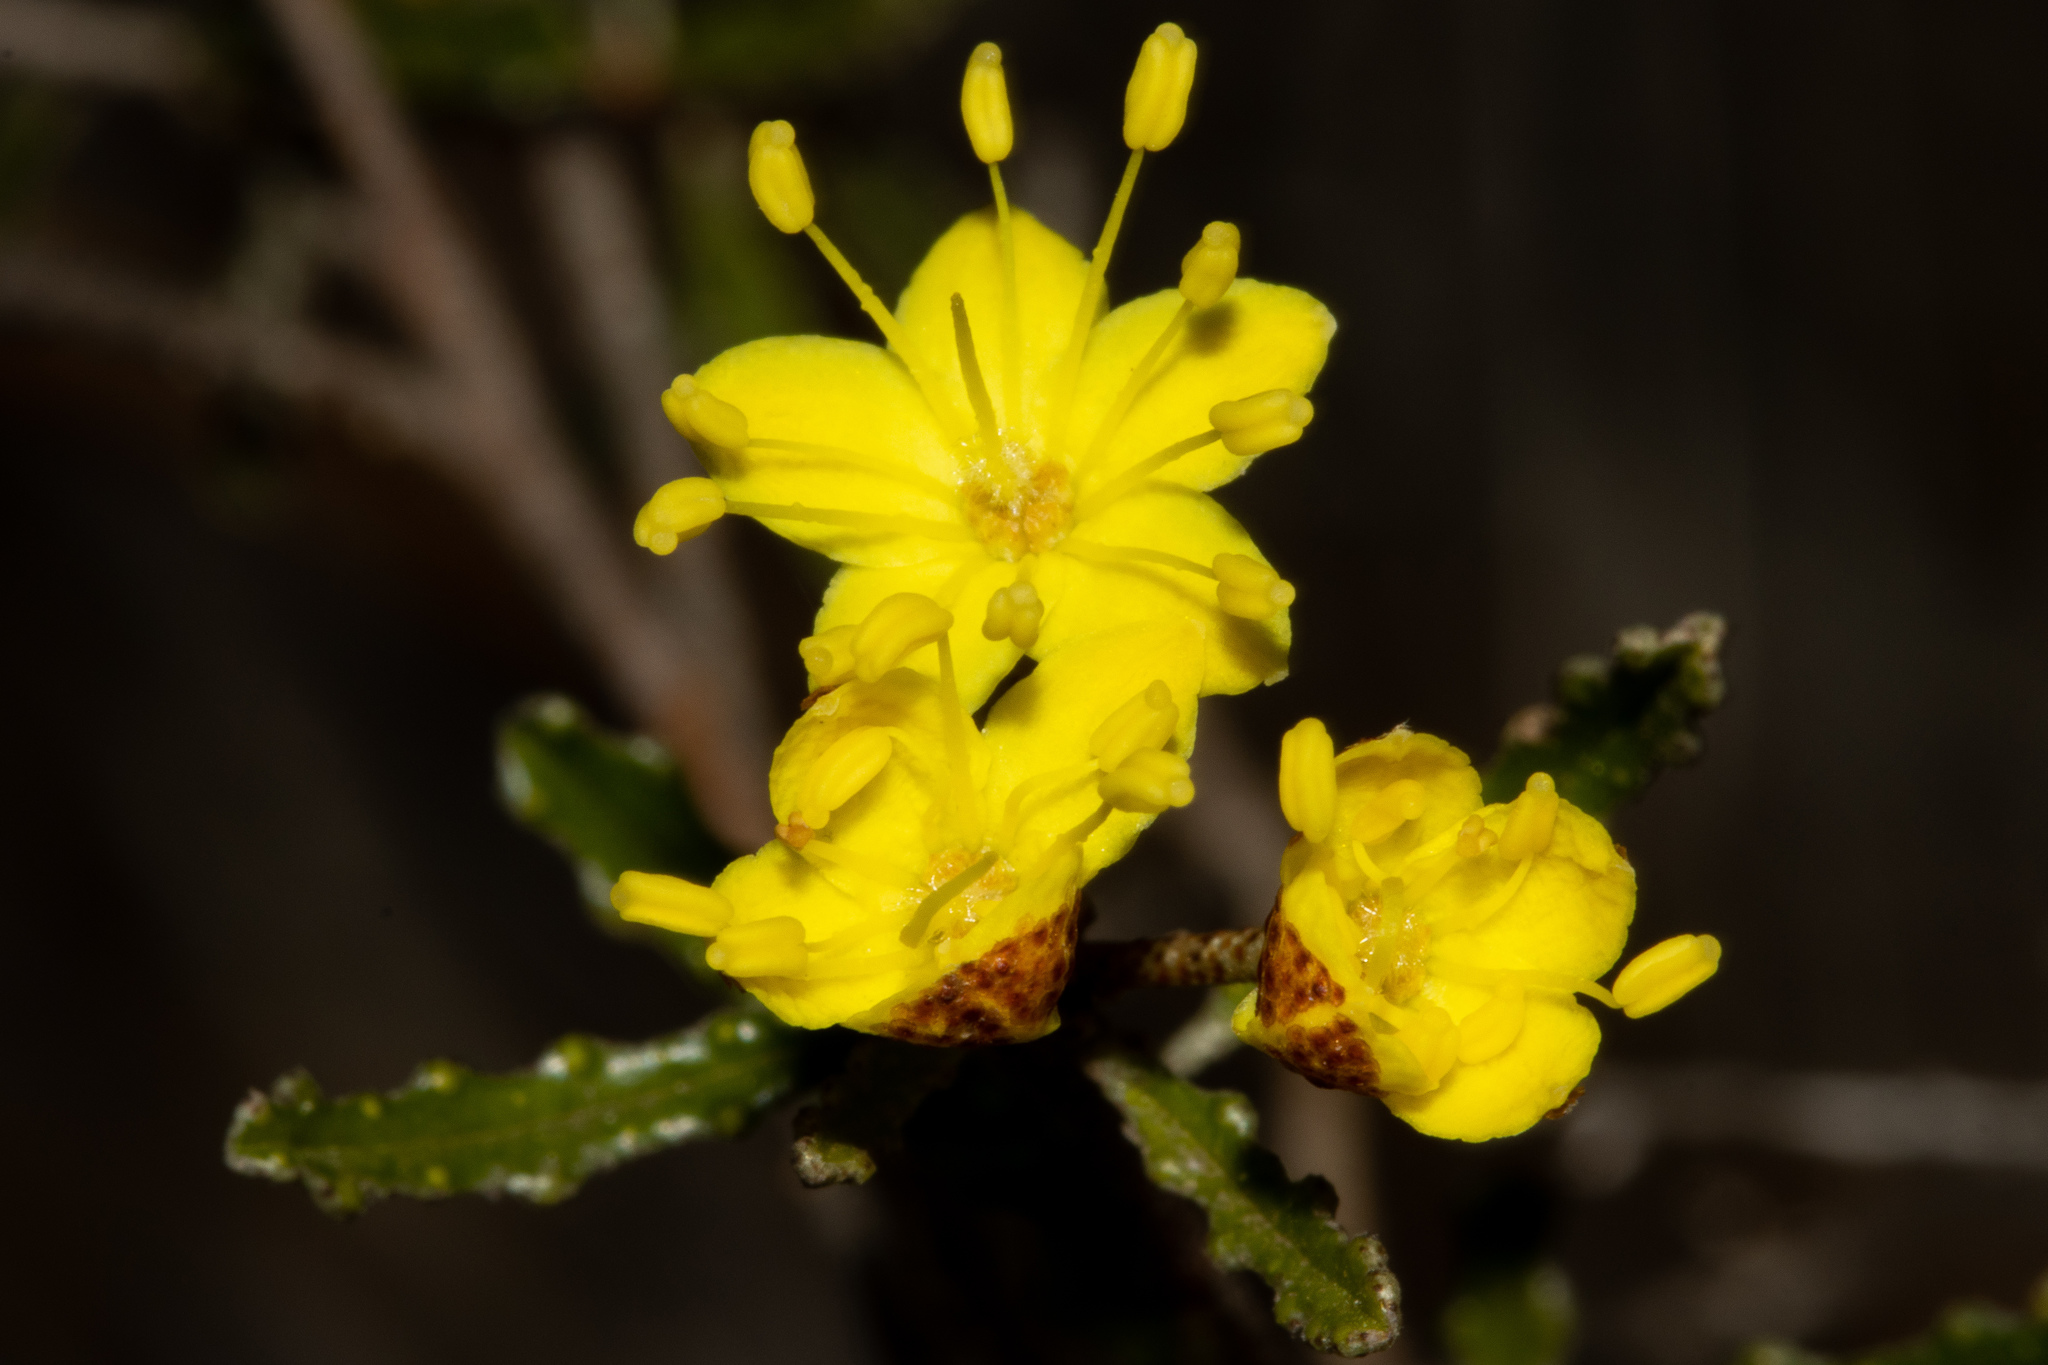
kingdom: Plantae
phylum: Tracheophyta
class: Magnoliopsida
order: Sapindales
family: Rutaceae
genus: Phebalium
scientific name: Phebalium bullatum
